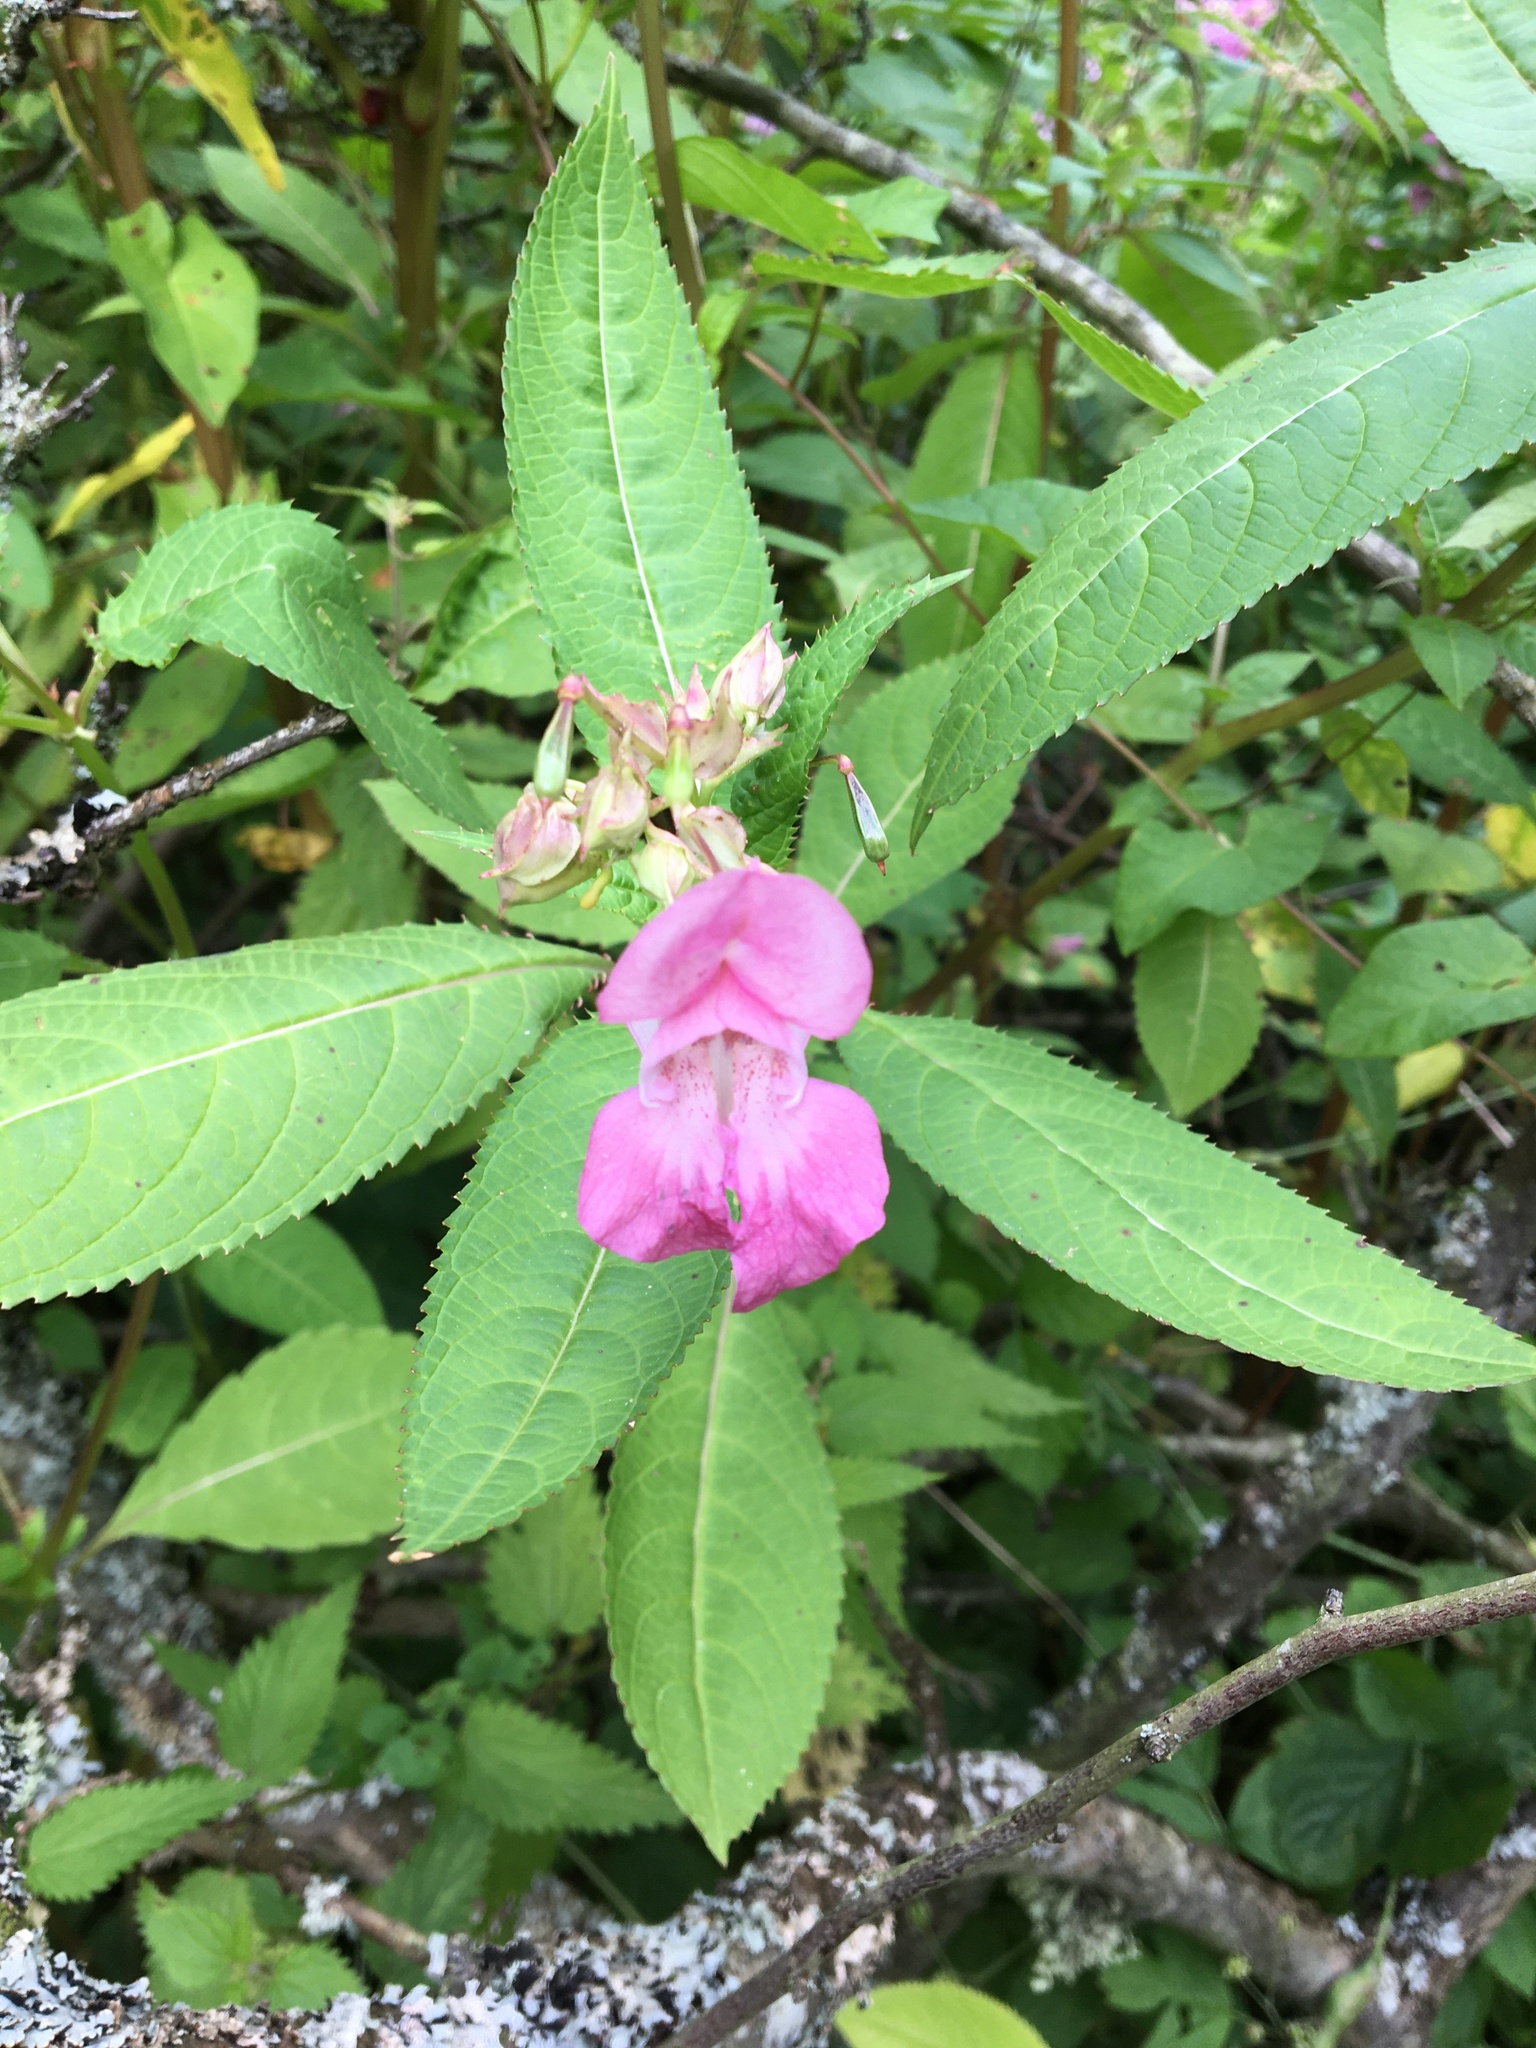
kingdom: Plantae
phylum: Tracheophyta
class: Magnoliopsida
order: Ericales
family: Balsaminaceae
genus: Impatiens
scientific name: Impatiens glandulifera
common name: Himalayan balsam
